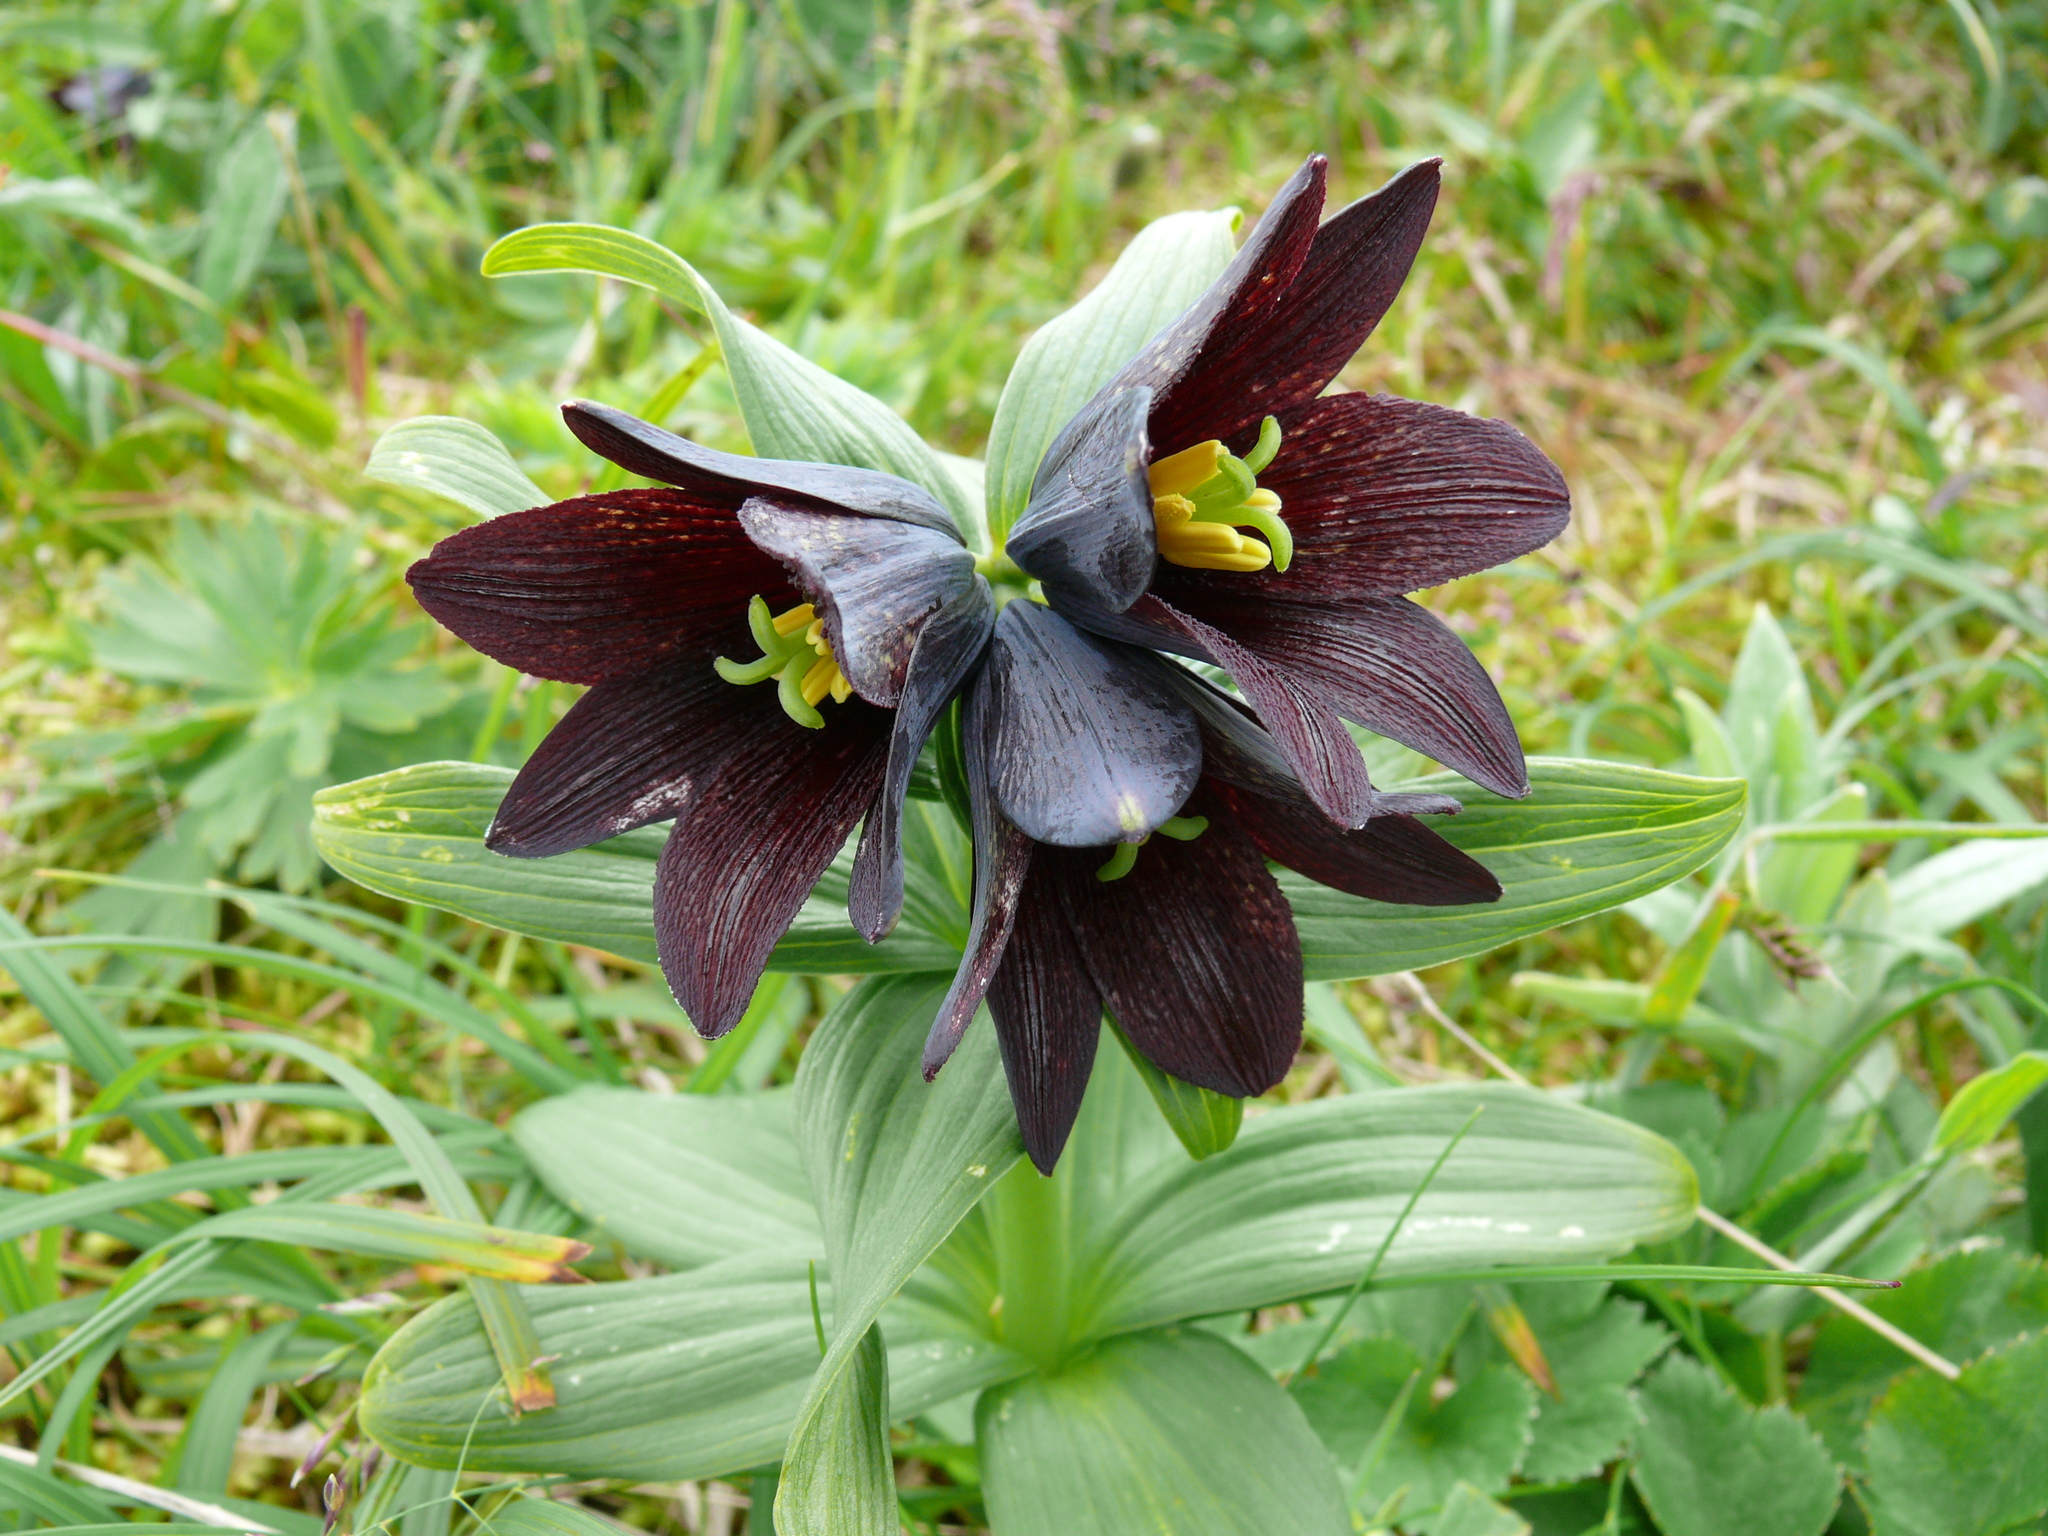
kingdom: Plantae
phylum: Tracheophyta
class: Liliopsida
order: Liliales
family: Liliaceae
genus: Fritillaria
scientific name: Fritillaria camschatcensis
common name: Kamchatka fritillary
